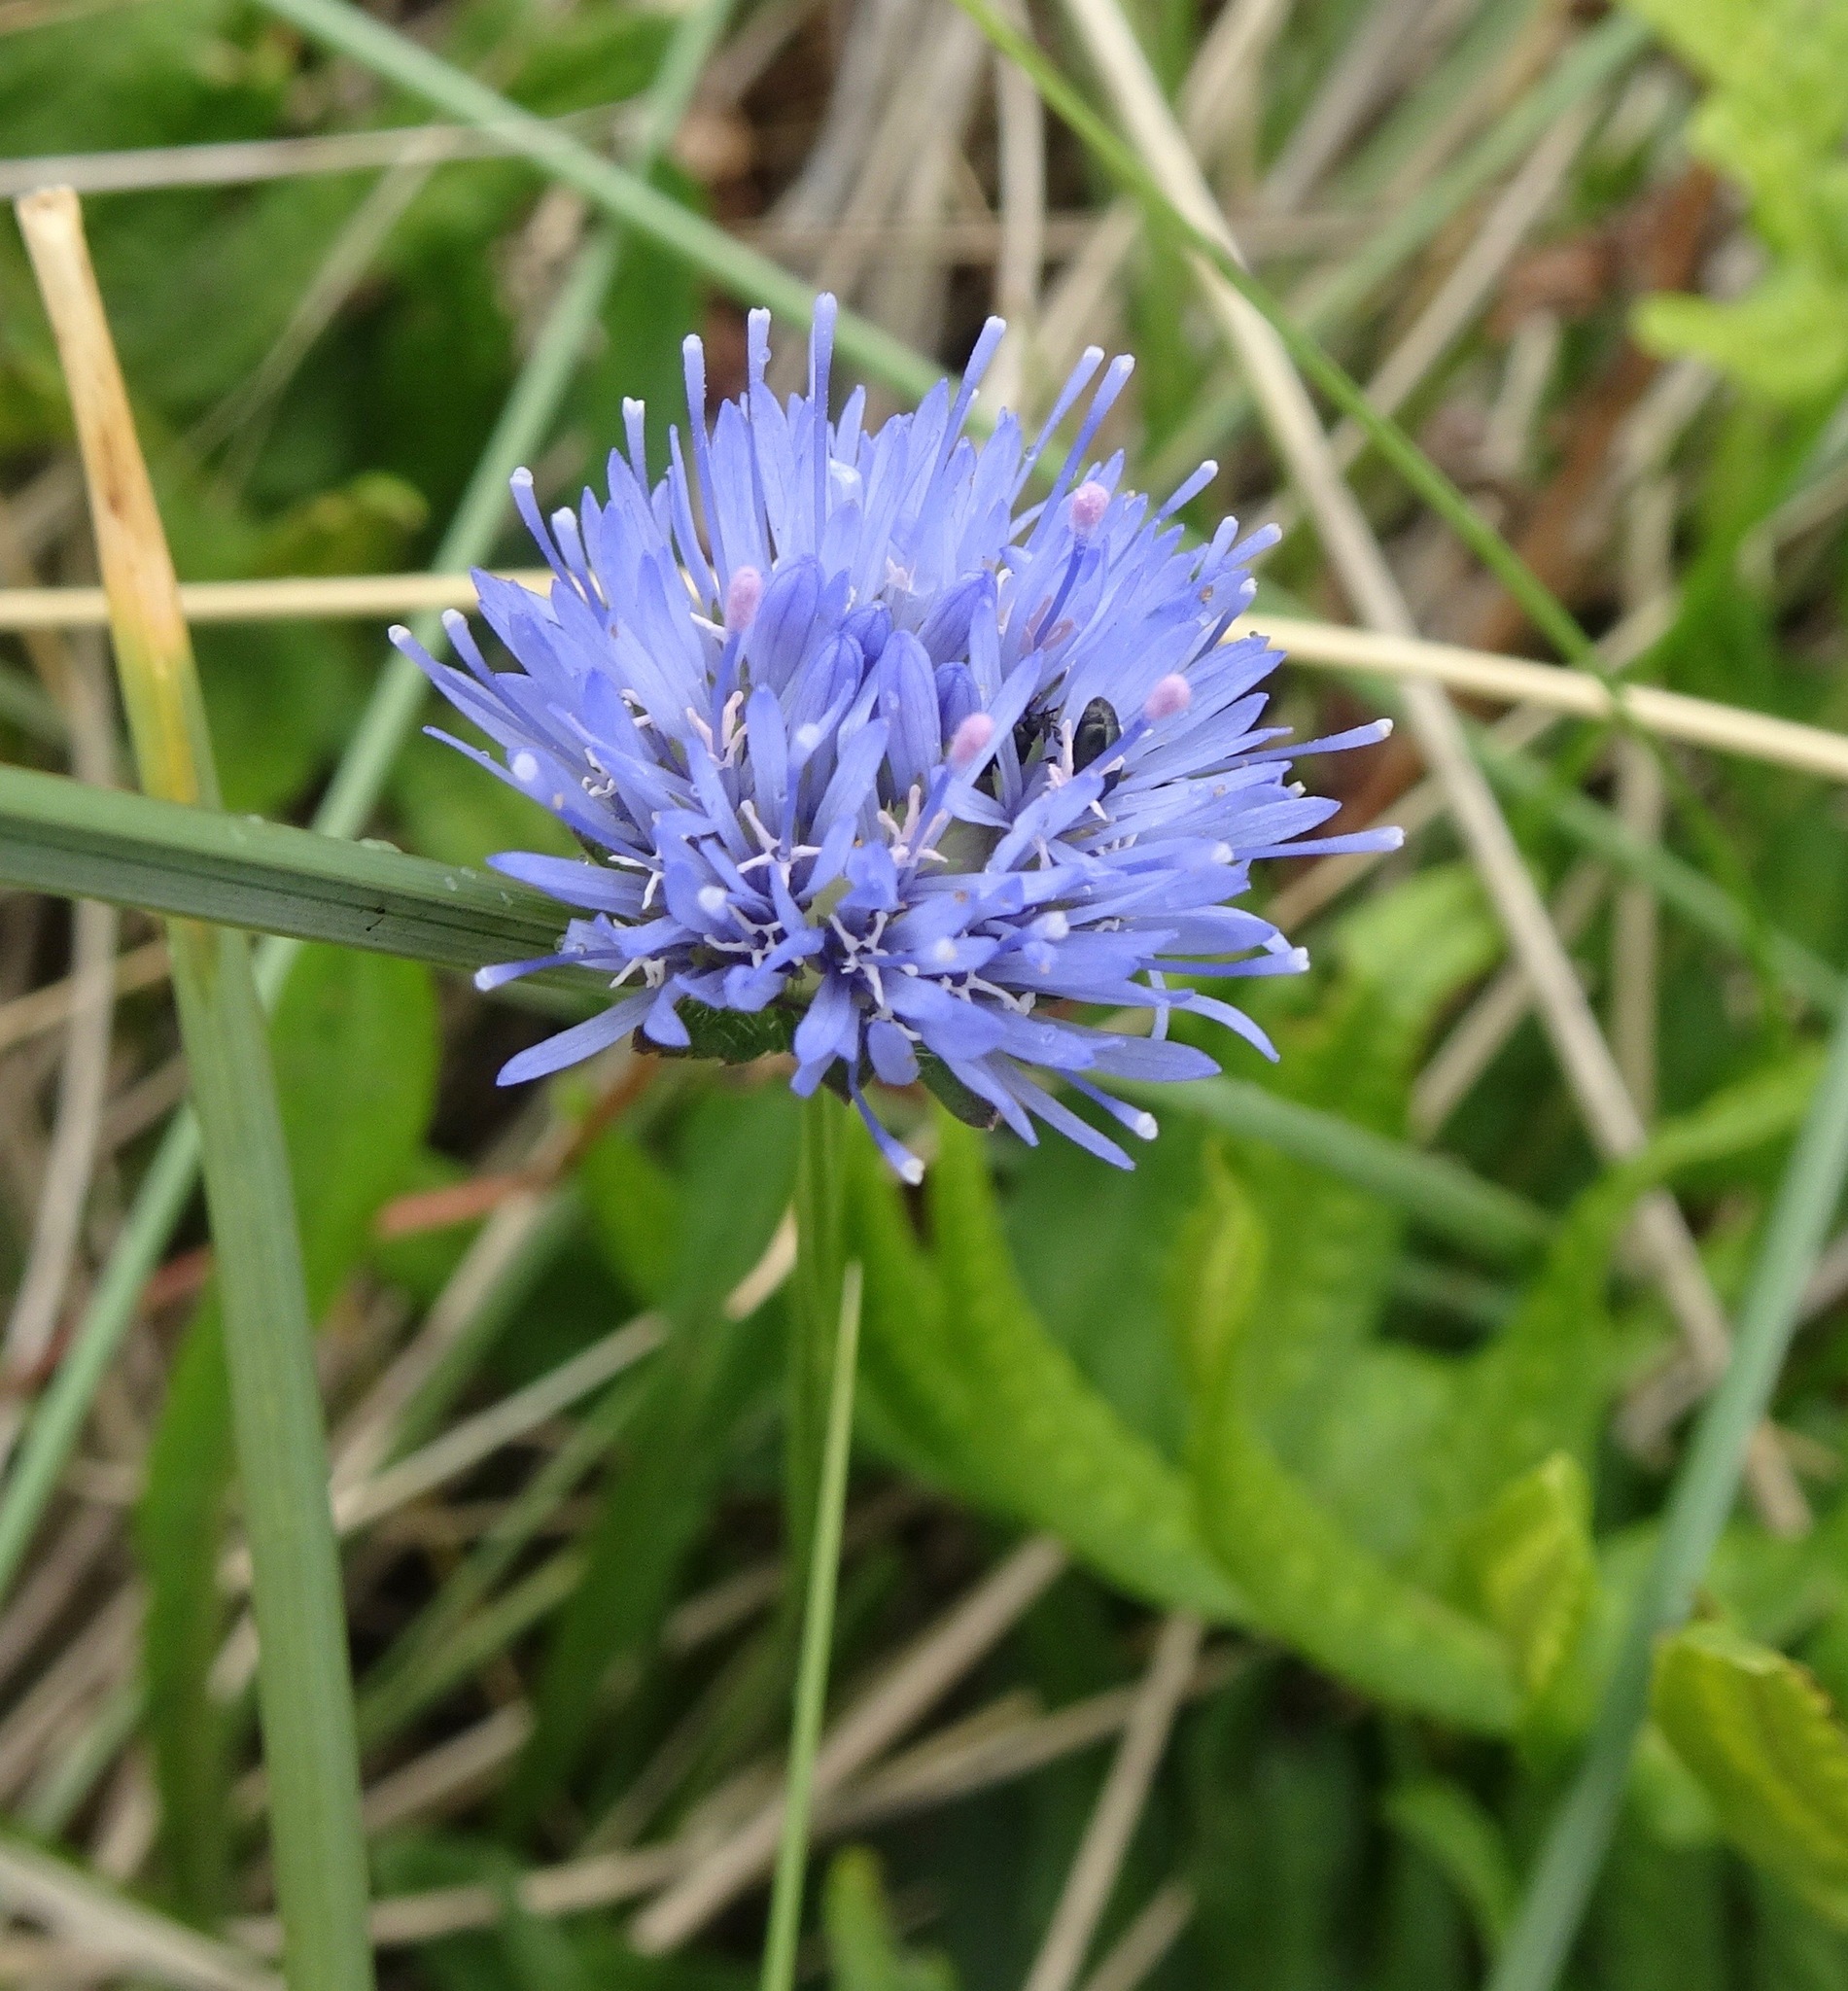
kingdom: Plantae
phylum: Tracheophyta
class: Magnoliopsida
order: Asterales
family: Campanulaceae
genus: Jasione
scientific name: Jasione montana
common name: Sheep's-bit
